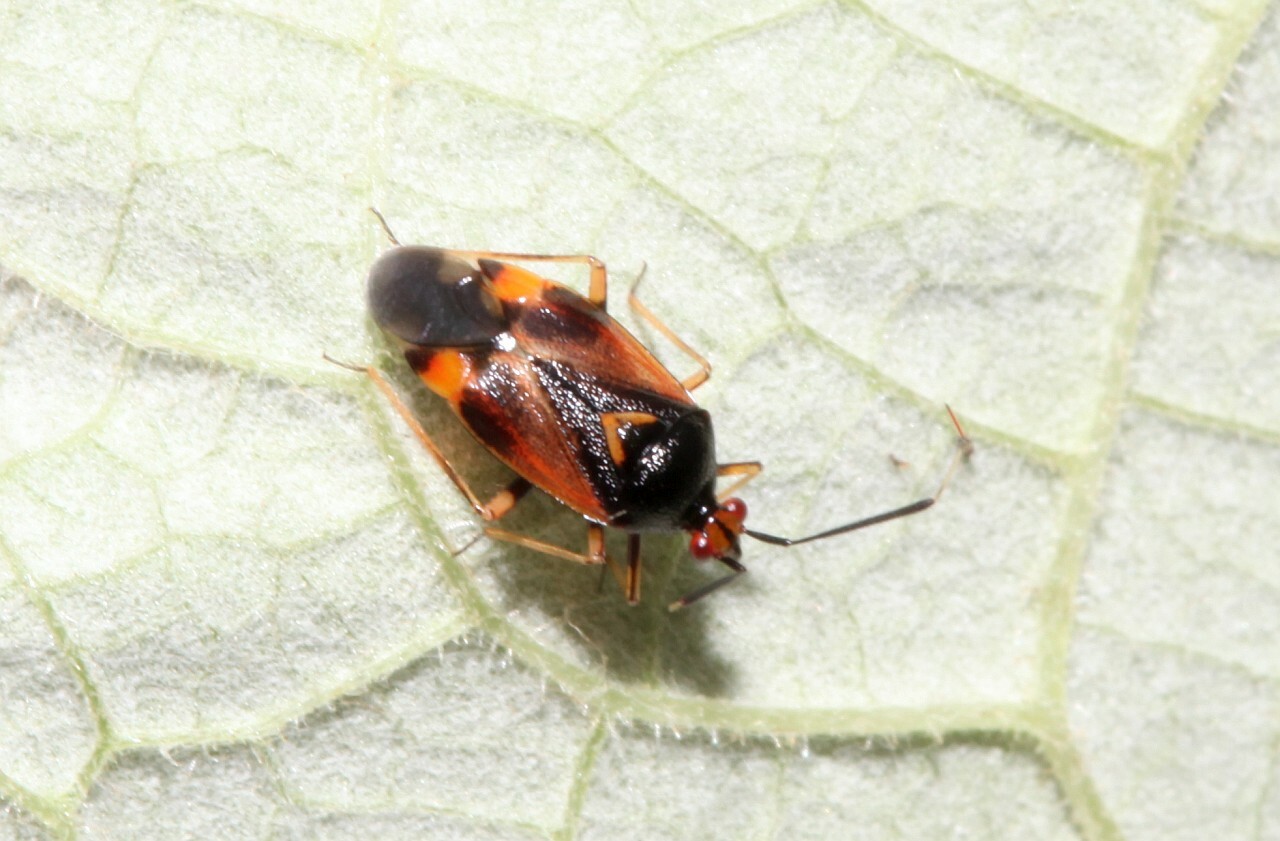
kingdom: Animalia
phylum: Arthropoda
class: Insecta
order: Hemiptera
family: Miridae
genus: Deraeocoris
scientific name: Deraeocoris ruber
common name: Plant bug
